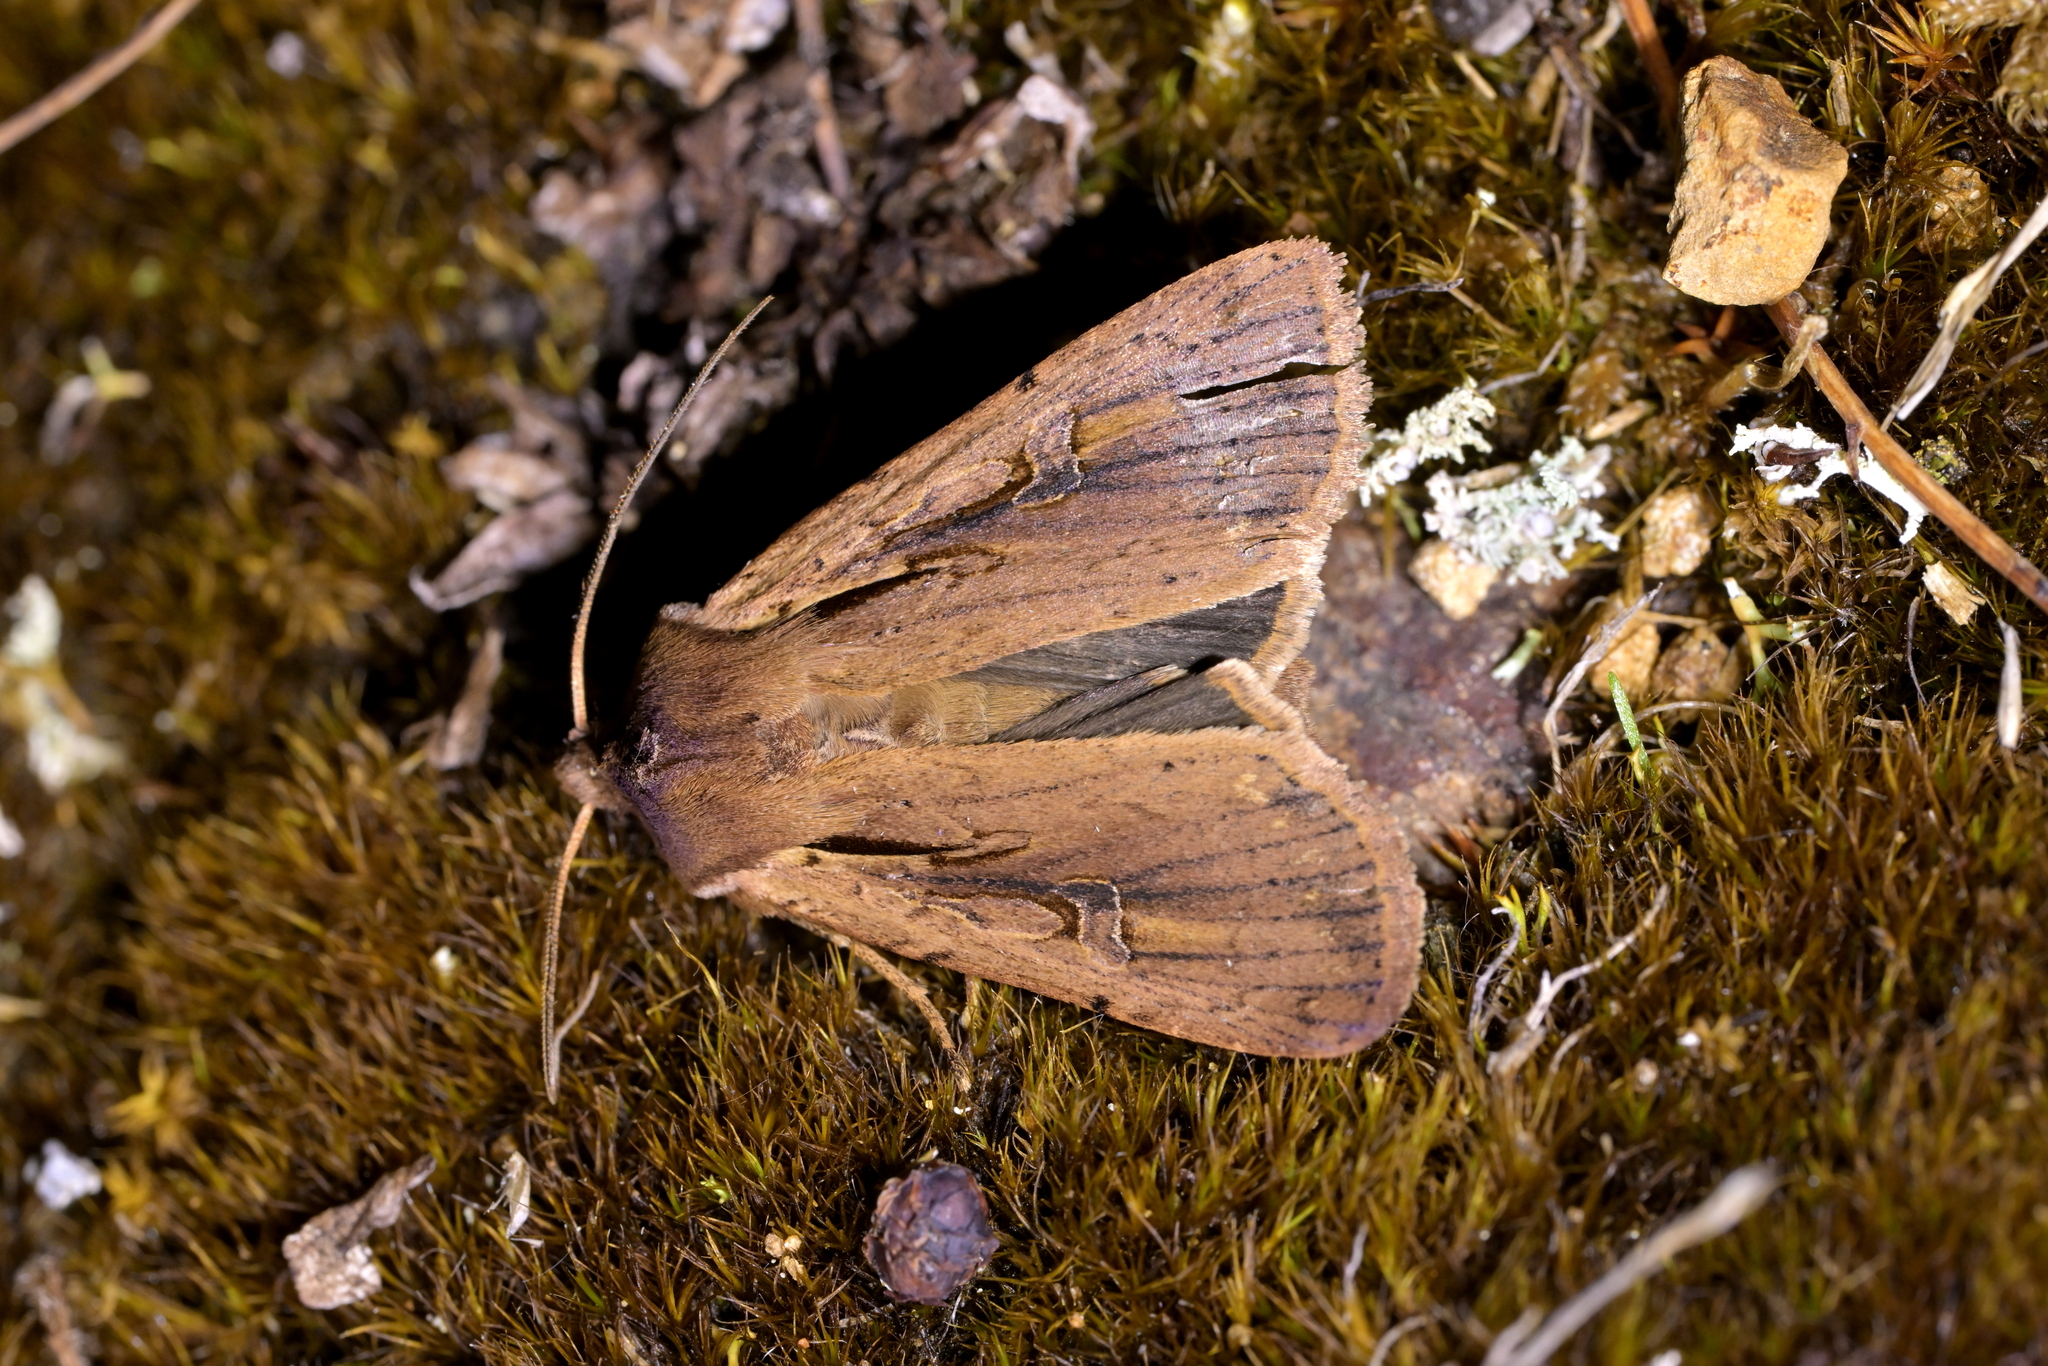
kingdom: Animalia
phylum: Arthropoda
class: Insecta
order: Lepidoptera
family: Noctuidae
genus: Ichneutica
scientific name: Ichneutica atristriga
